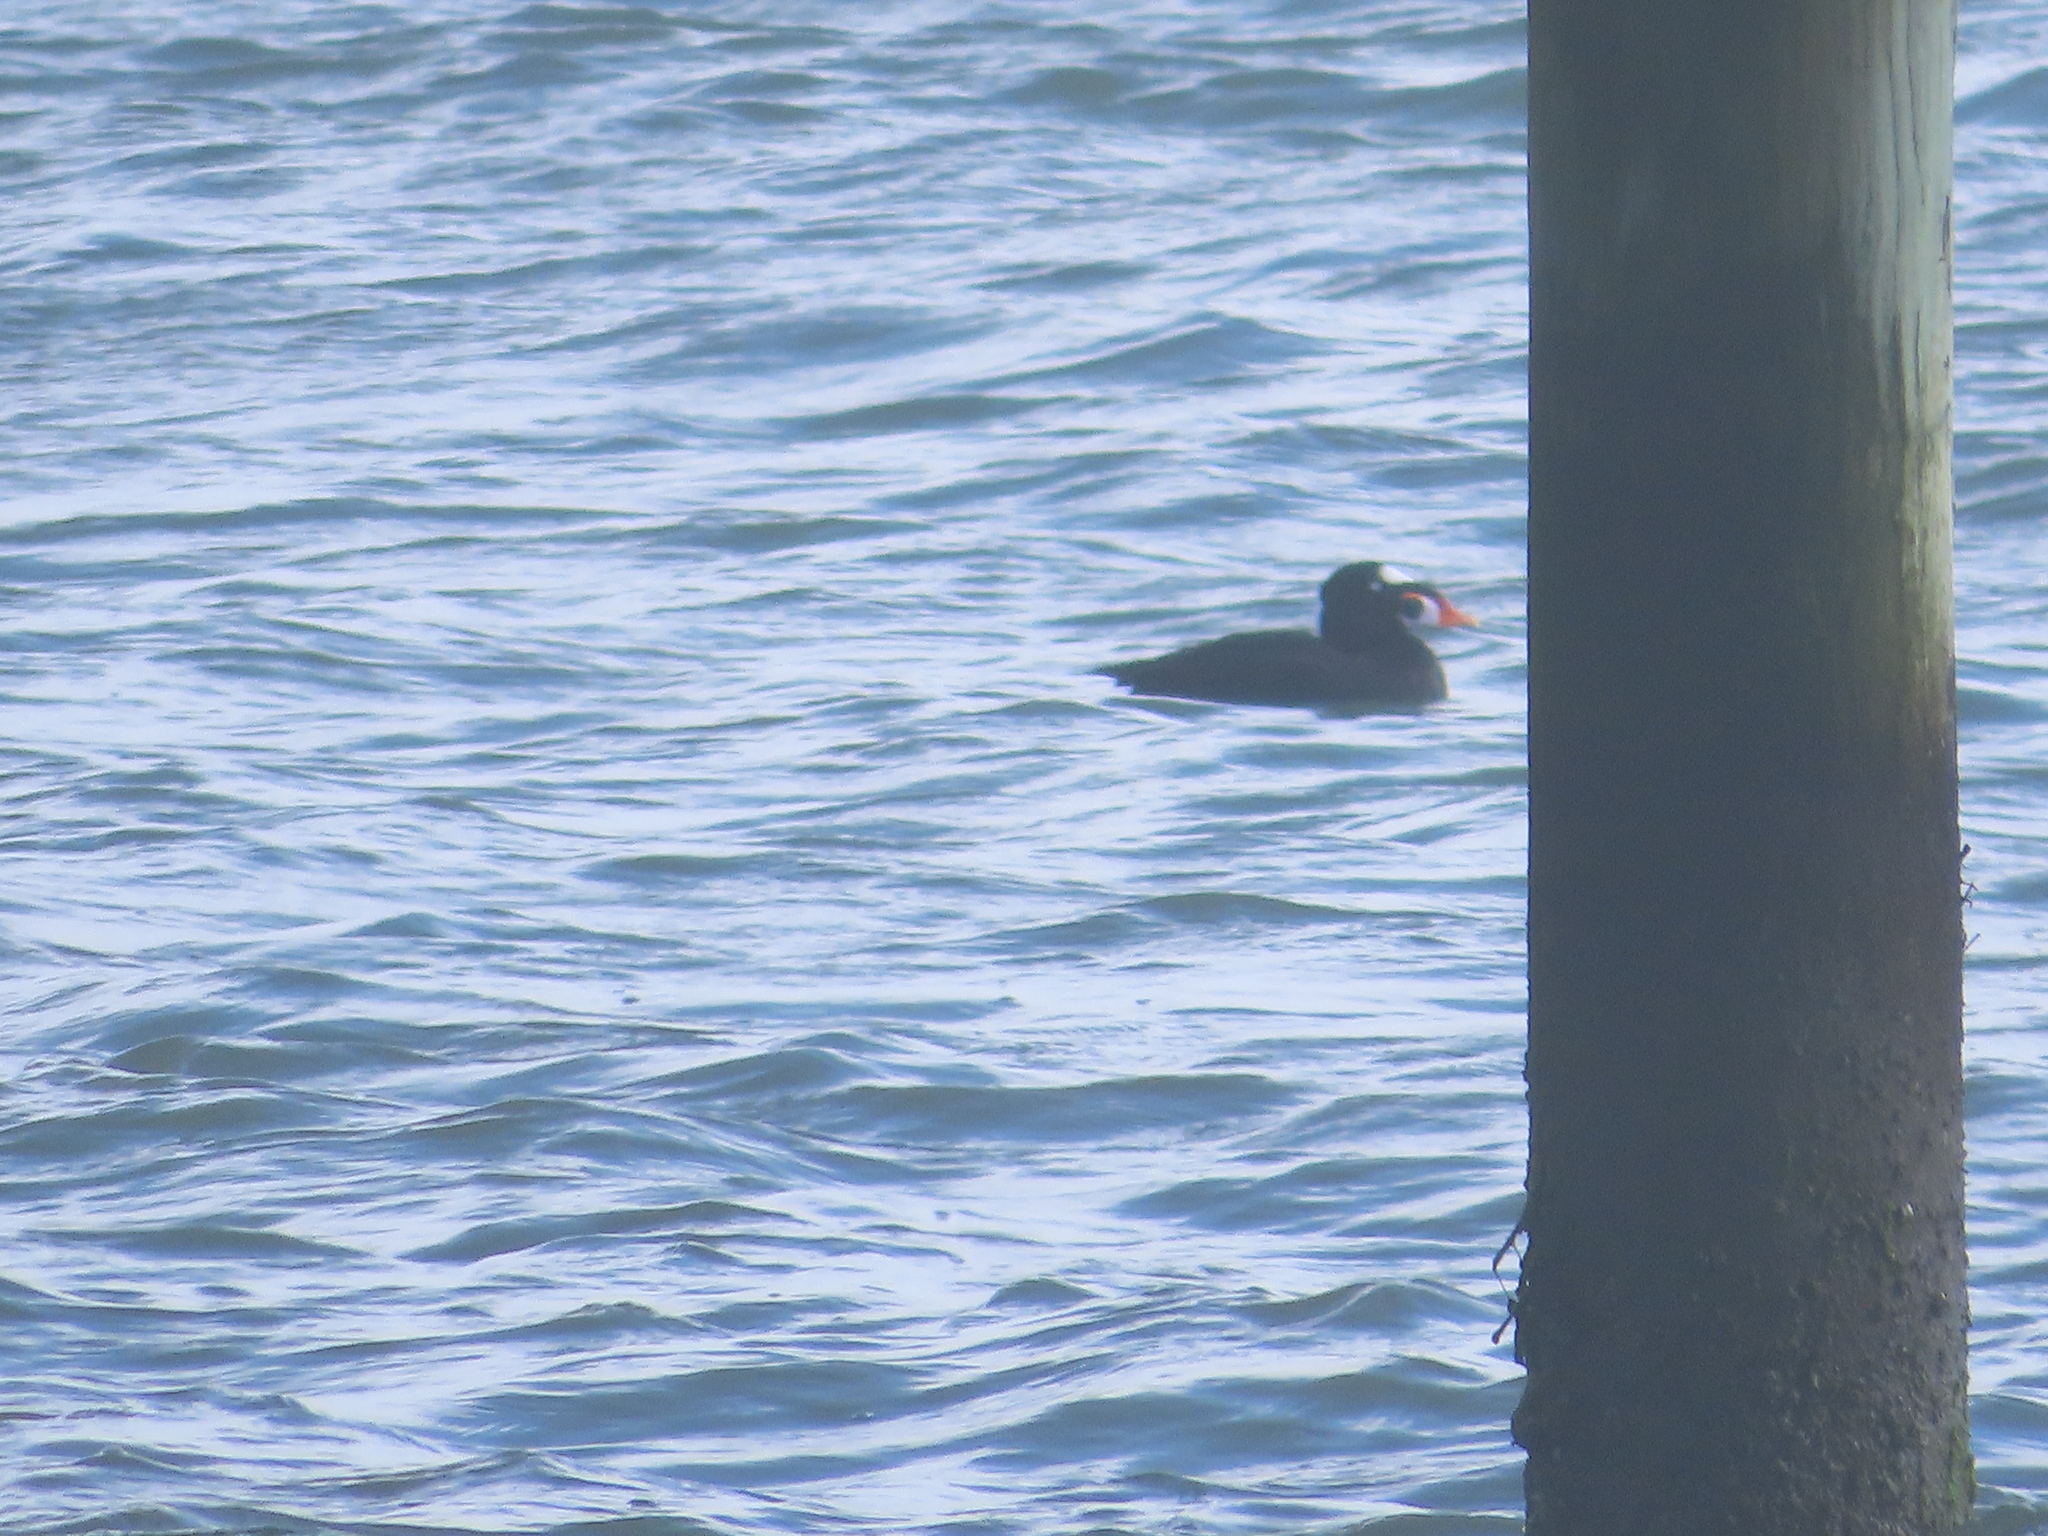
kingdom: Animalia
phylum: Chordata
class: Aves
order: Anseriformes
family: Anatidae
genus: Melanitta
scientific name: Melanitta perspicillata
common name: Surf scoter
